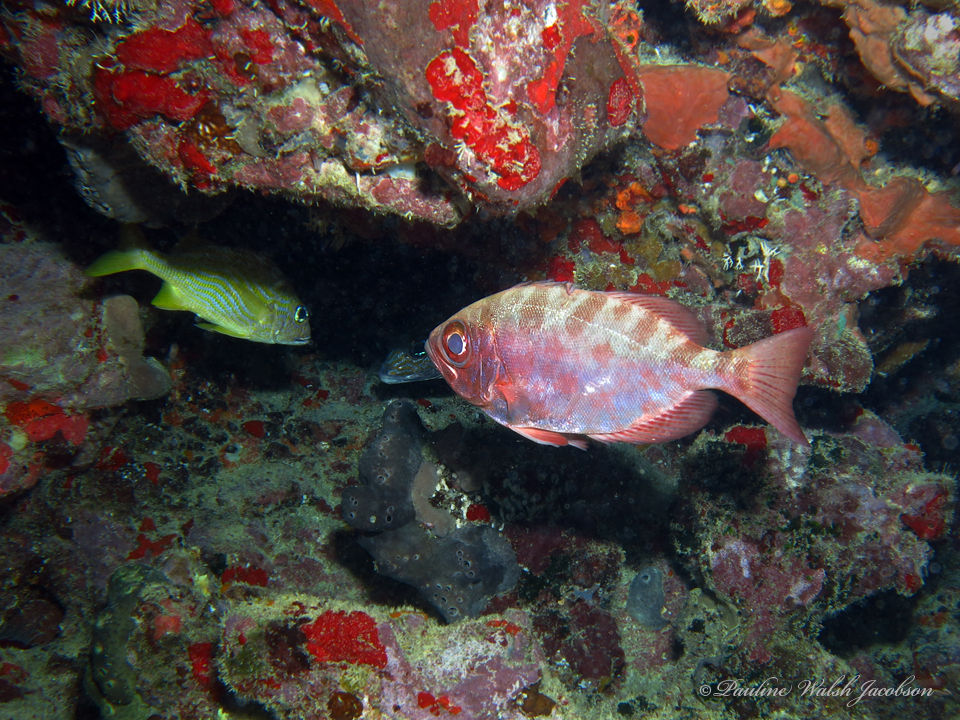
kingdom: Animalia
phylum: Chordata
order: Perciformes
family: Priacanthidae
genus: Heteropriacanthus
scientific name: Heteropriacanthus cruentatus
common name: Glasseye
